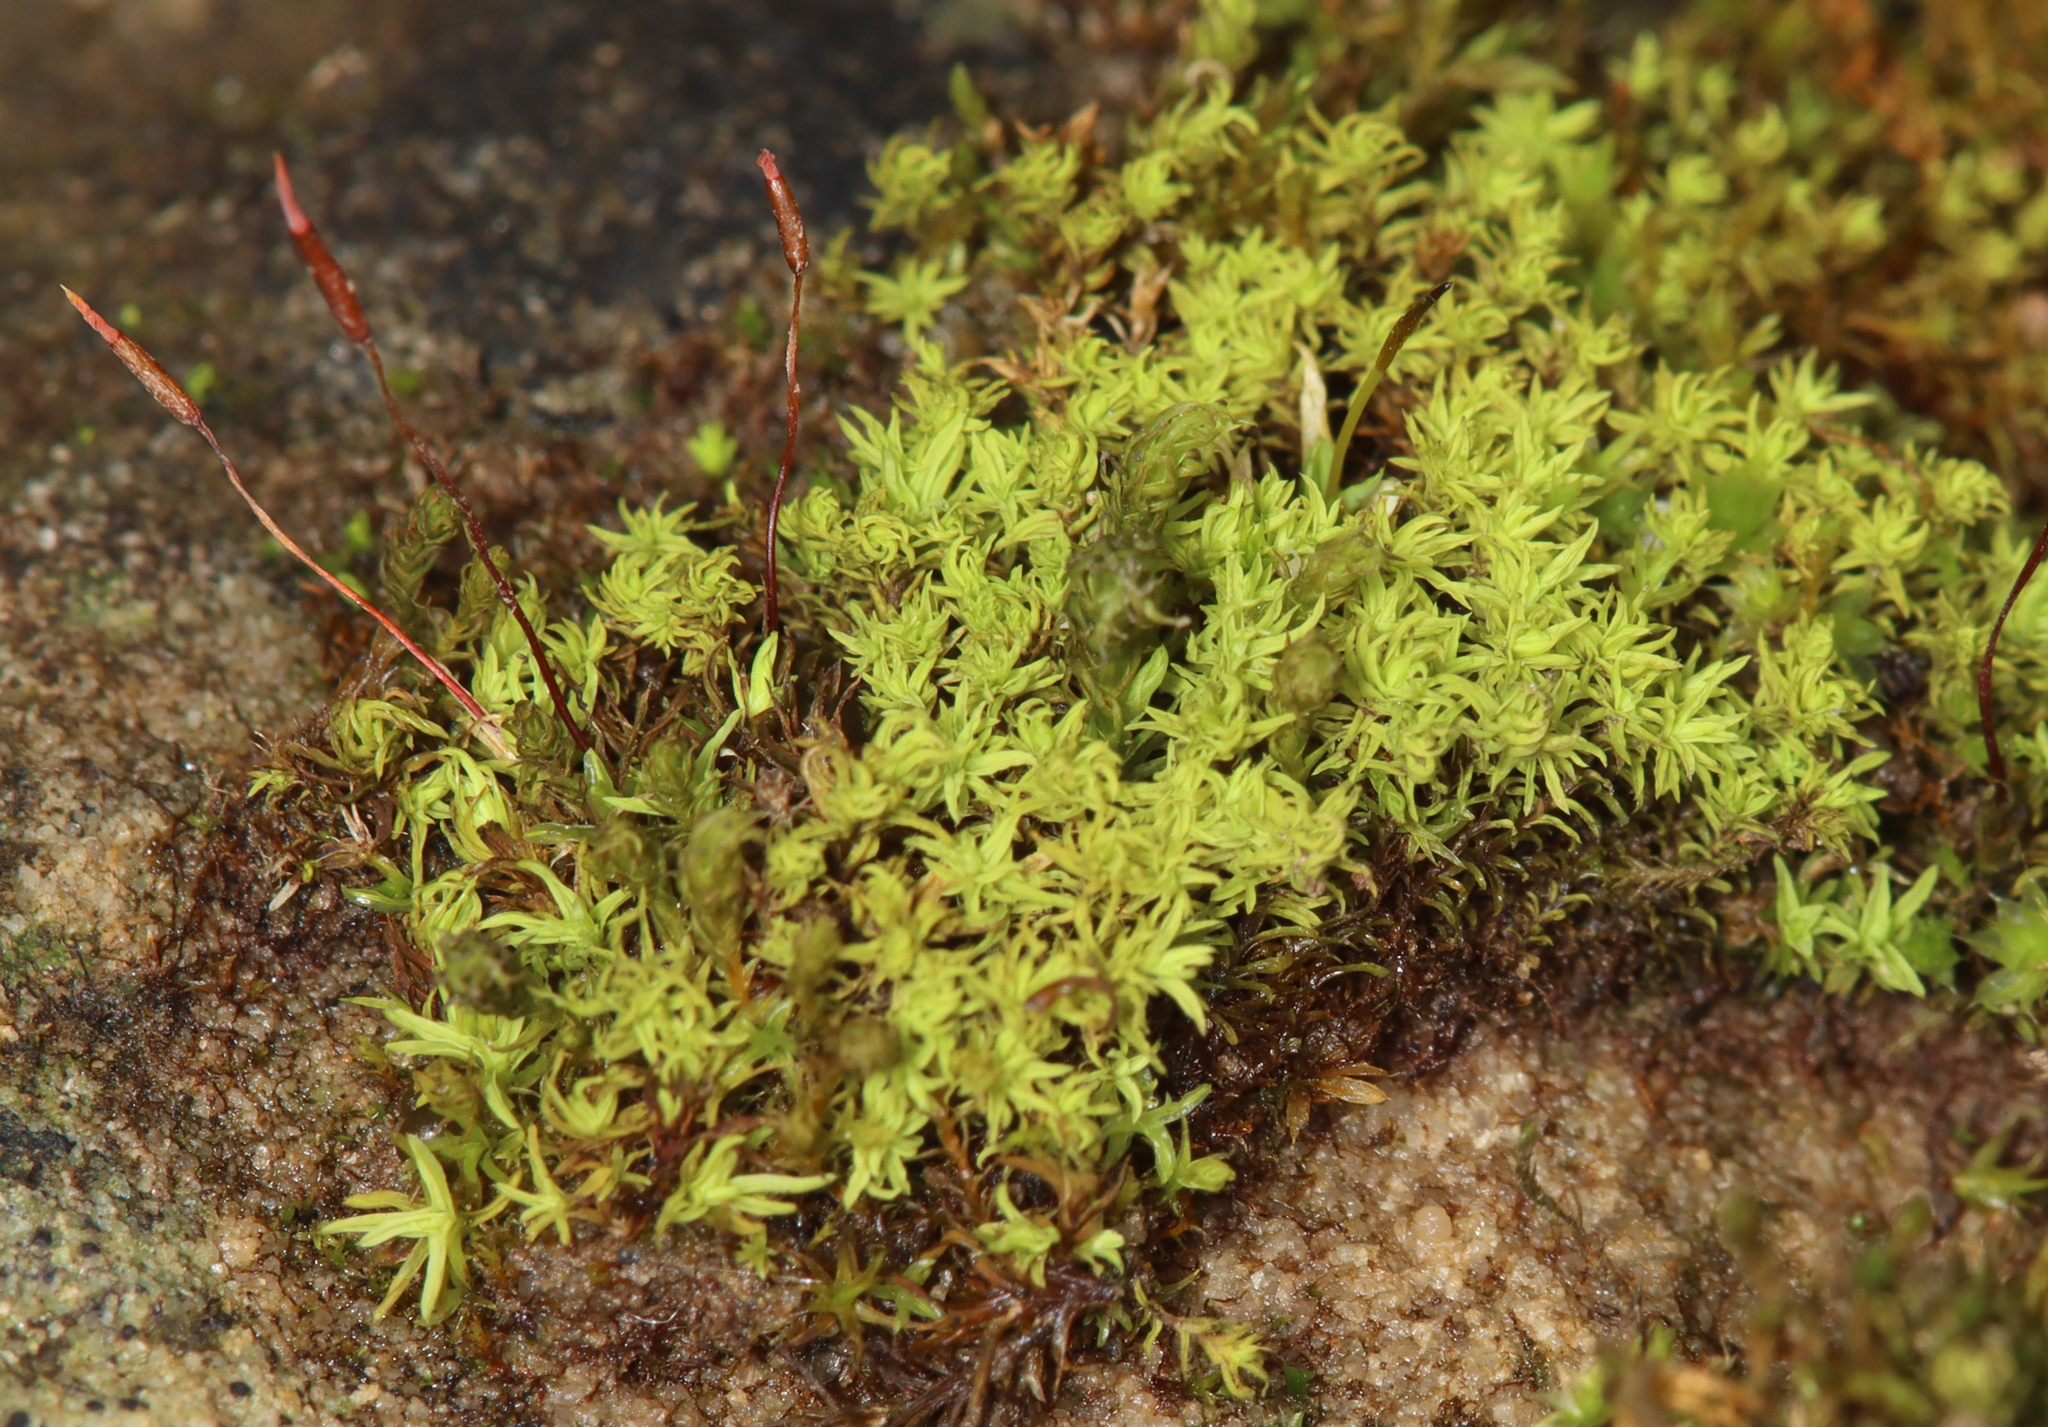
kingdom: Plantae
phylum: Bryophyta
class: Bryopsida
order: Pottiales
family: Pottiaceae
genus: Barbula
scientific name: Barbula unguiculata
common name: Prickly beard moss
